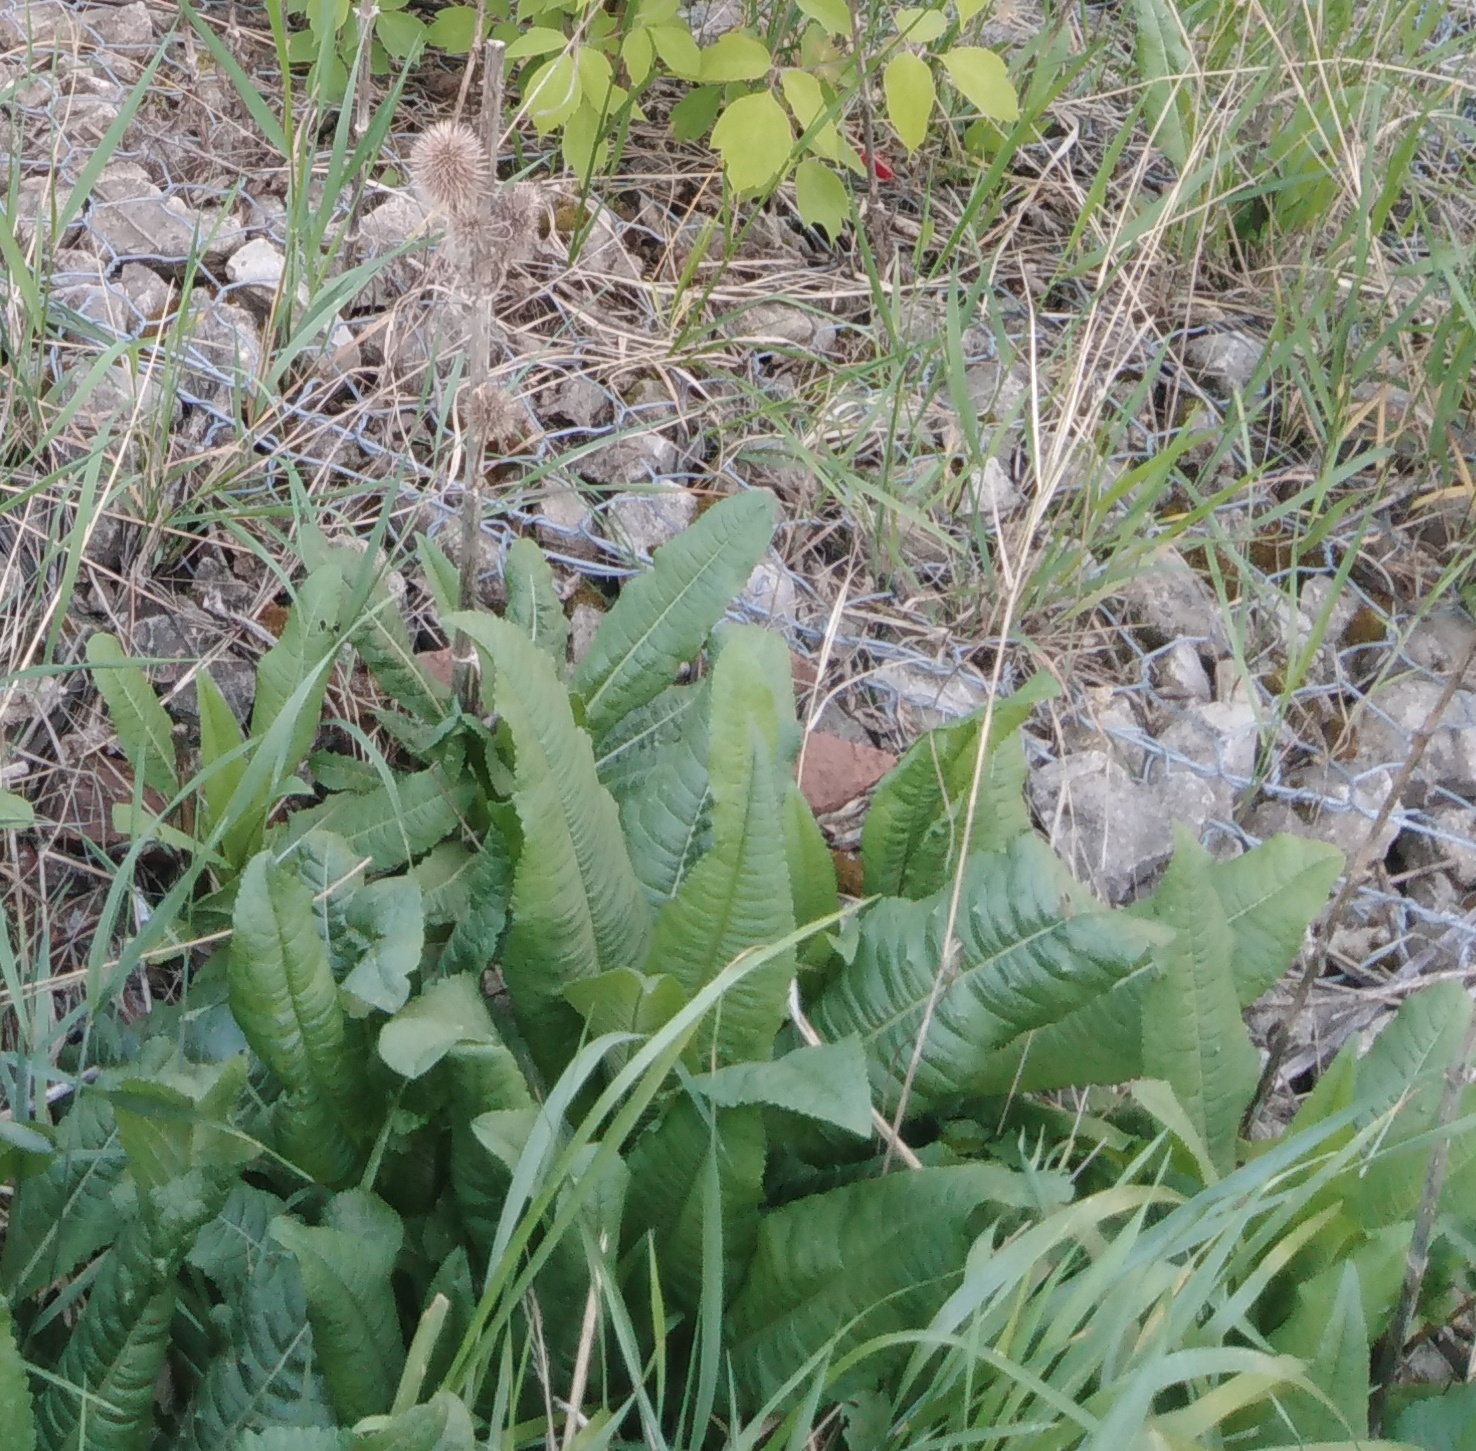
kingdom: Plantae
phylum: Tracheophyta
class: Magnoliopsida
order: Dipsacales
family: Caprifoliaceae
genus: Dipsacus
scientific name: Dipsacus fullonum
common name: Teasel
